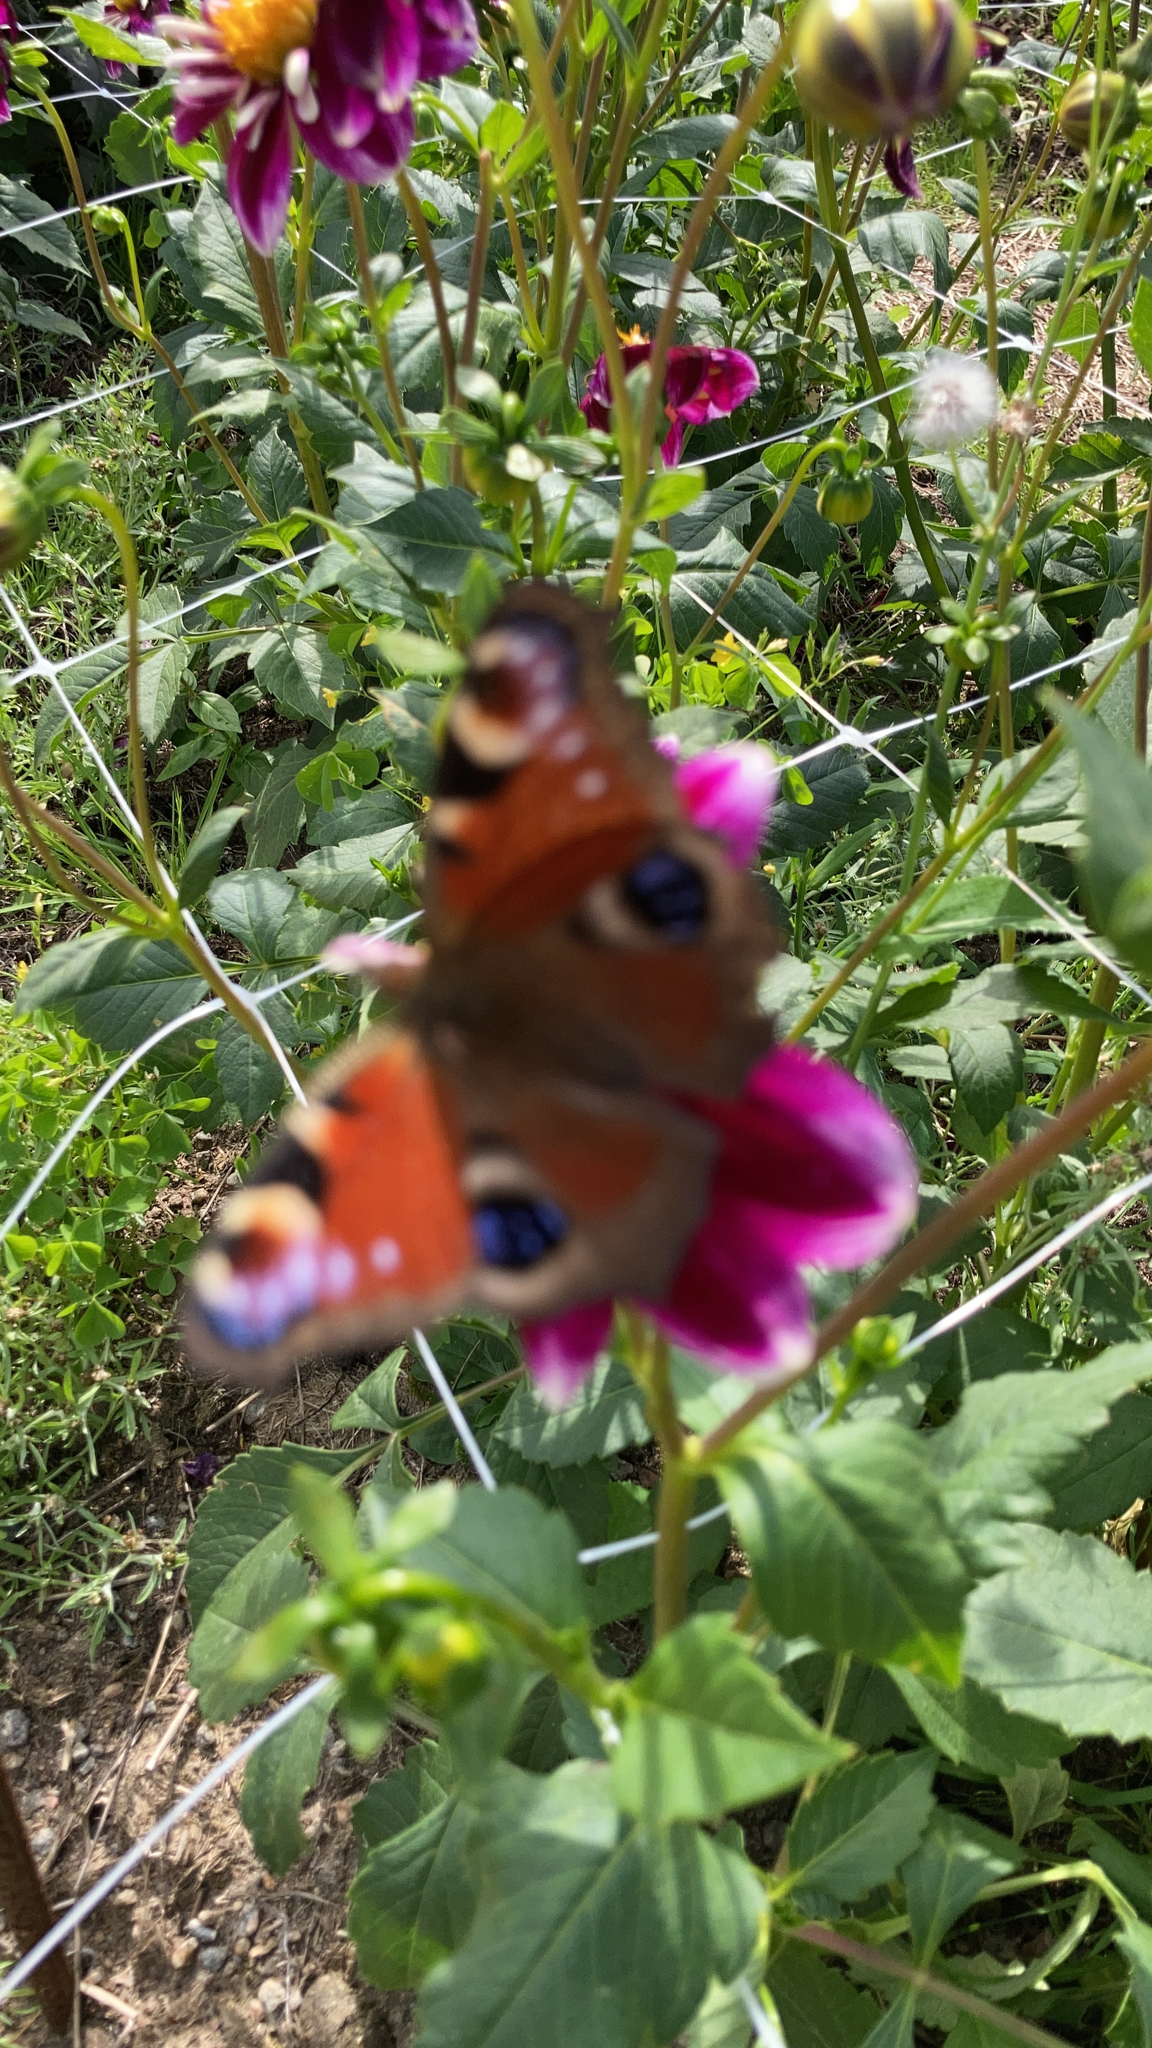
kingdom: Animalia
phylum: Arthropoda
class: Insecta
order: Lepidoptera
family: Nymphalidae
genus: Aglais
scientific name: Aglais io
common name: Peacock
